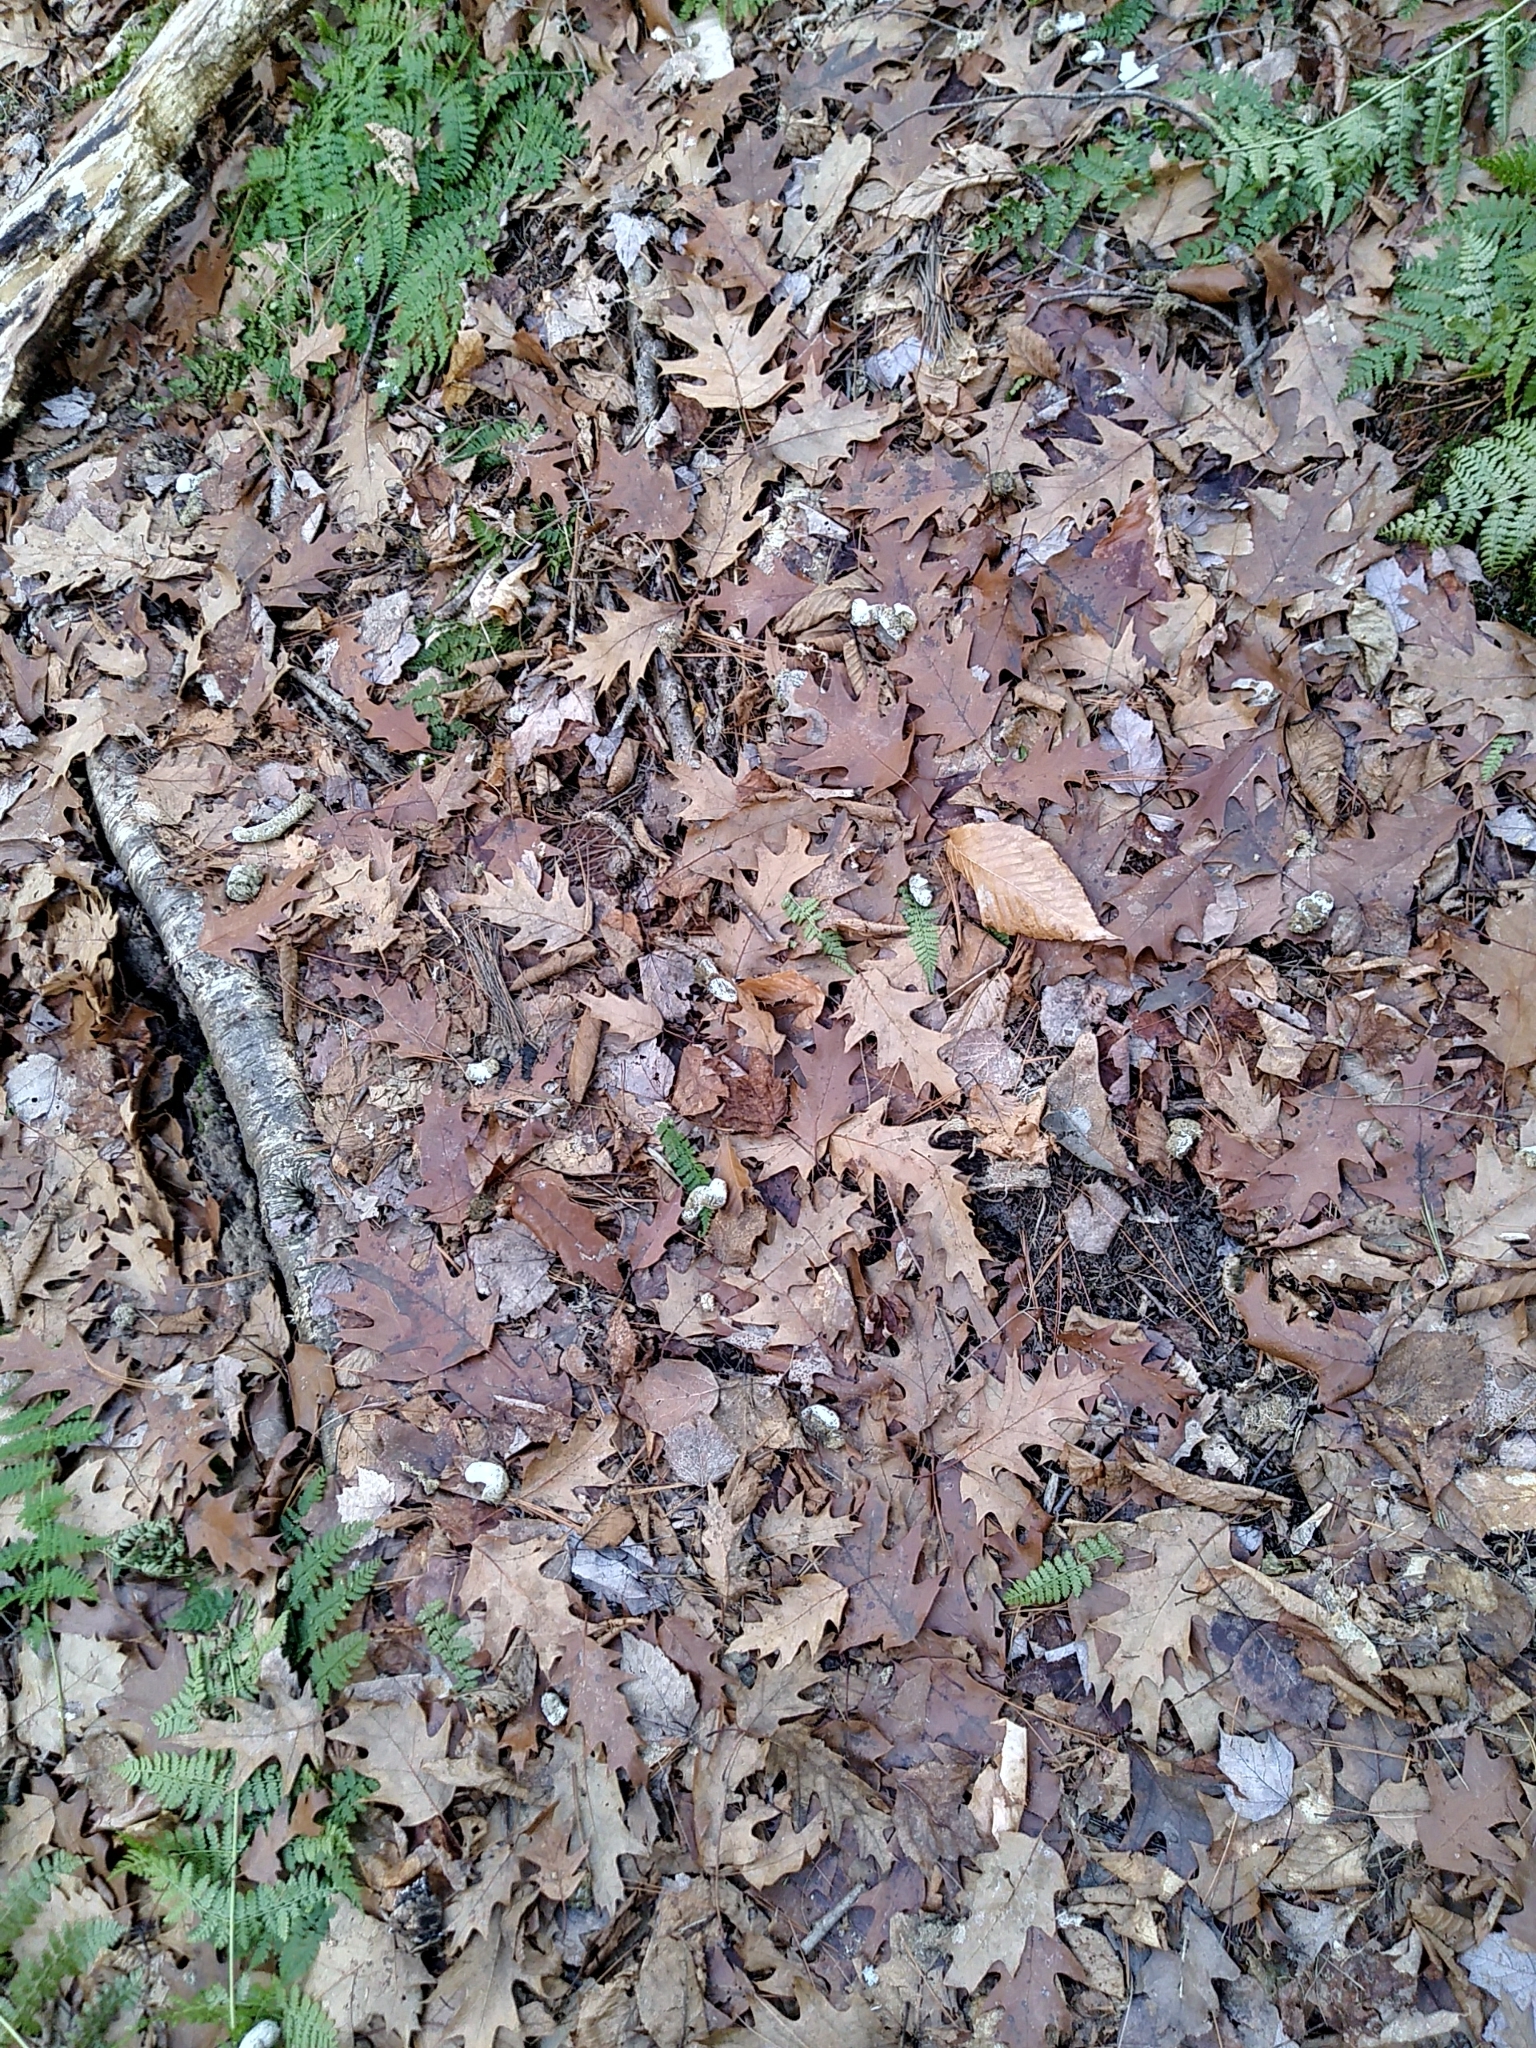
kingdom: Animalia
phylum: Chordata
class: Aves
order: Galliformes
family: Phasianidae
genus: Meleagris
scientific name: Meleagris gallopavo
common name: Wild turkey
